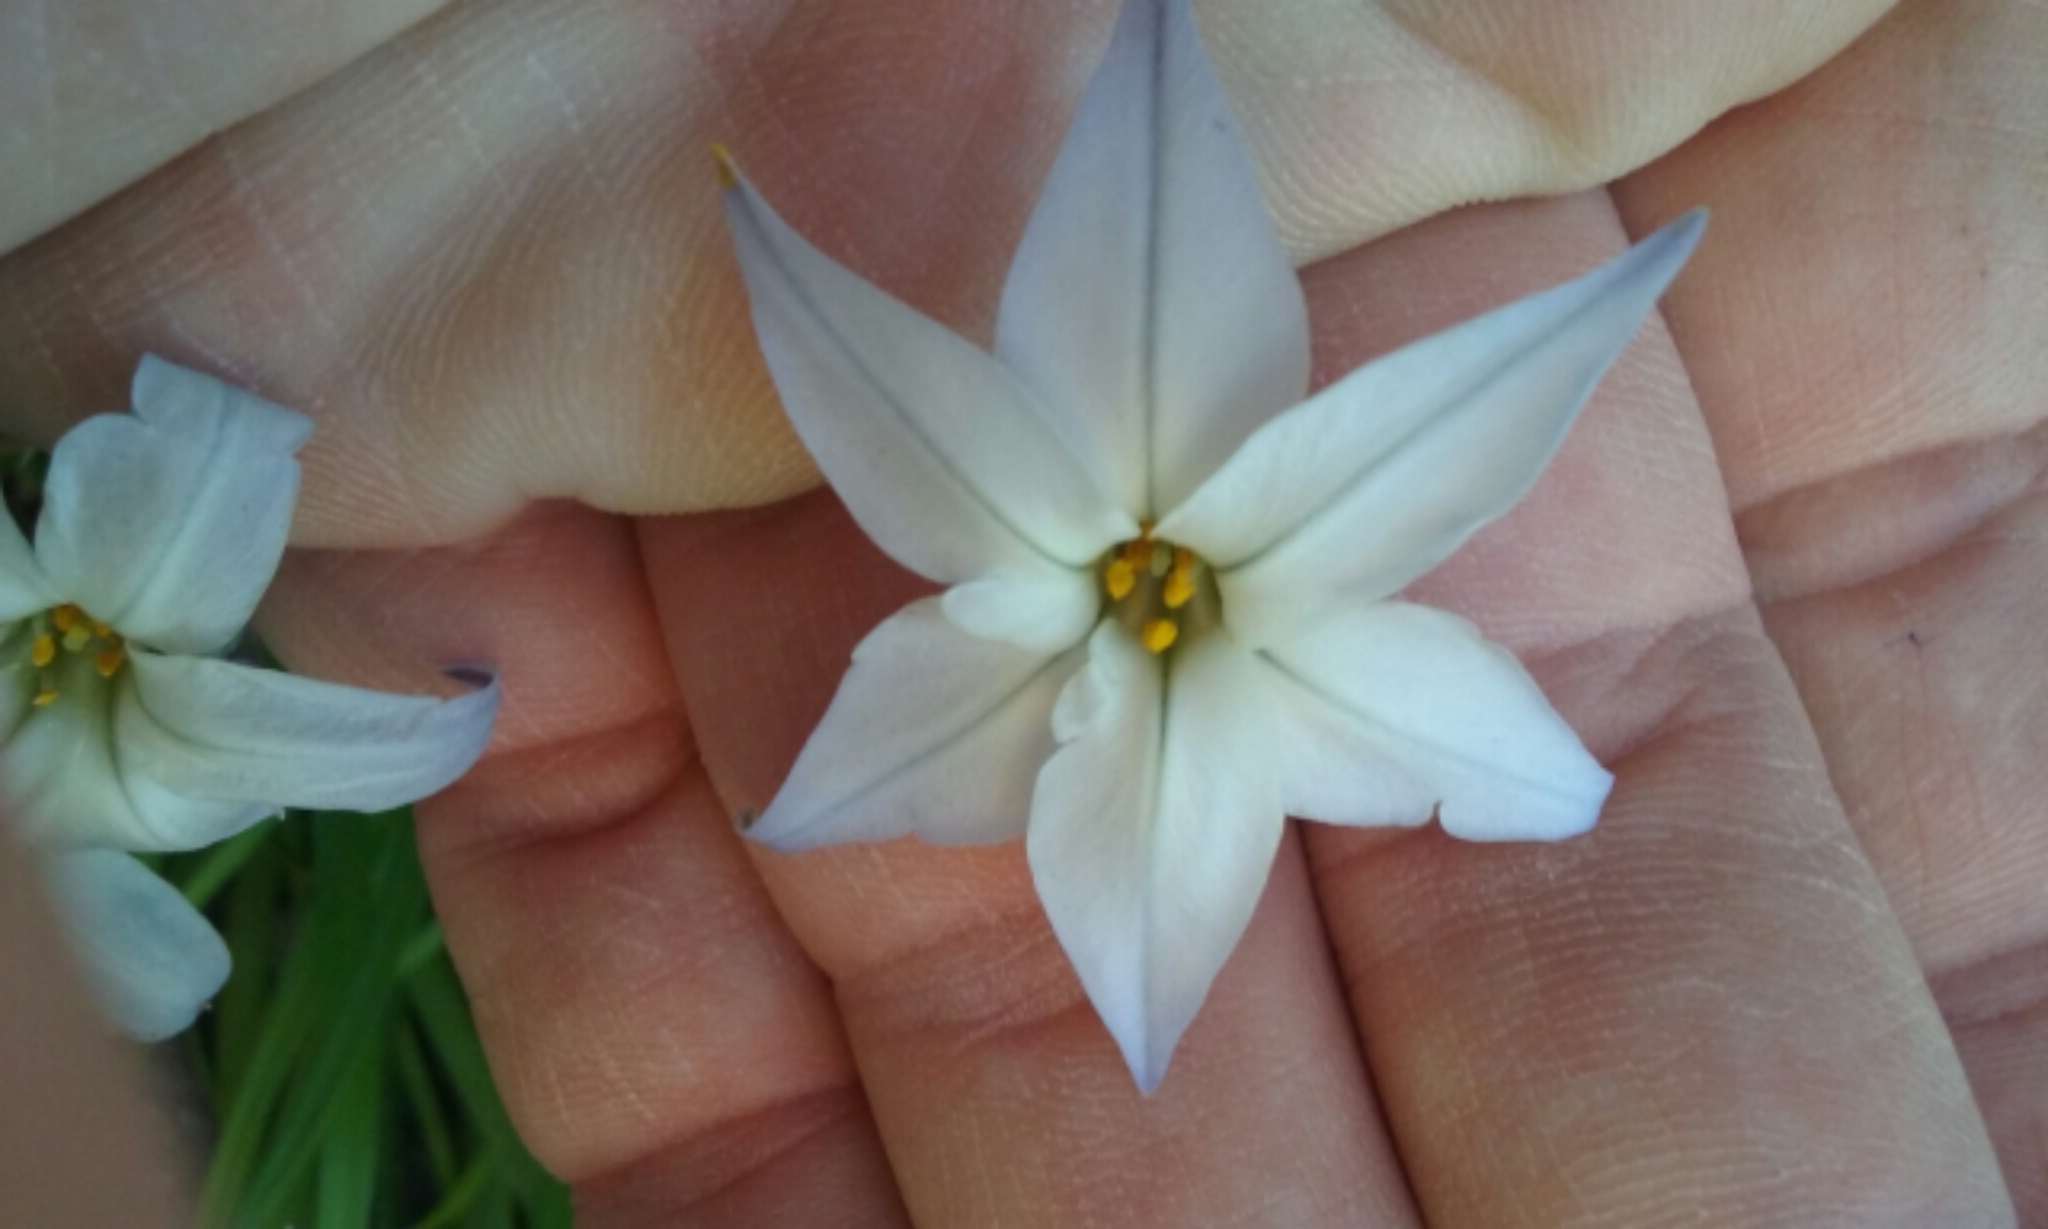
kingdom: Plantae
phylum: Tracheophyta
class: Liliopsida
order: Asparagales
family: Amaryllidaceae
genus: Ipheion
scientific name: Ipheion uniflorum
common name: Spring starflower
